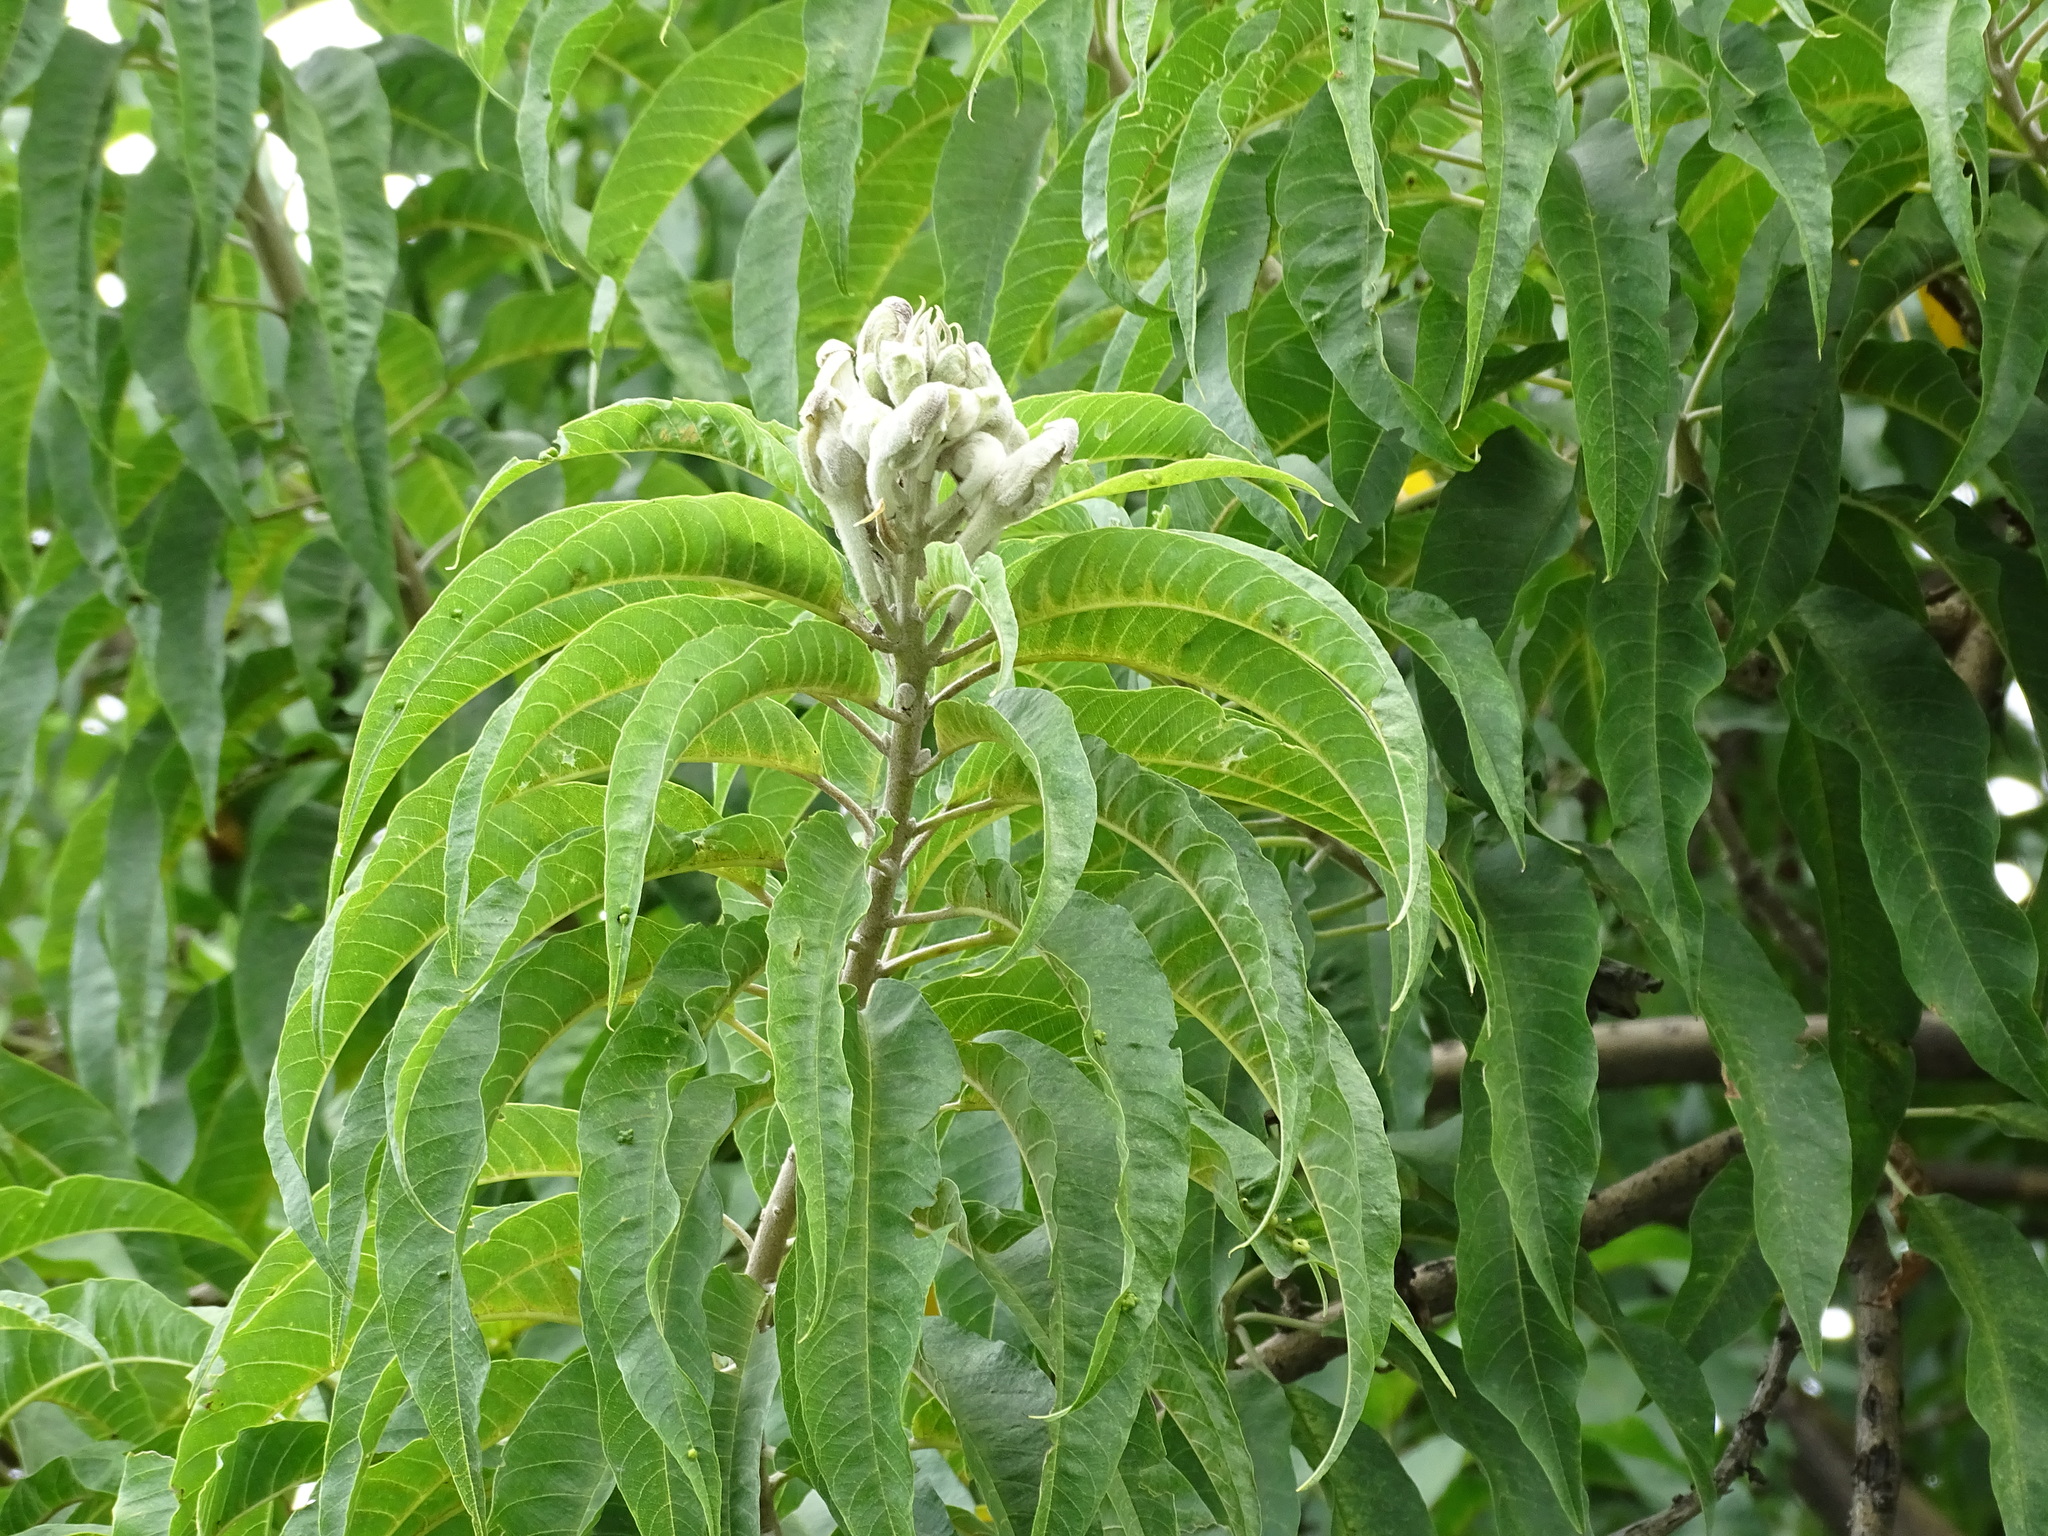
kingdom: Plantae
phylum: Tracheophyta
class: Magnoliopsida
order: Solanales
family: Convolvulaceae
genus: Ipomoea
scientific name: Ipomoea murucoides
